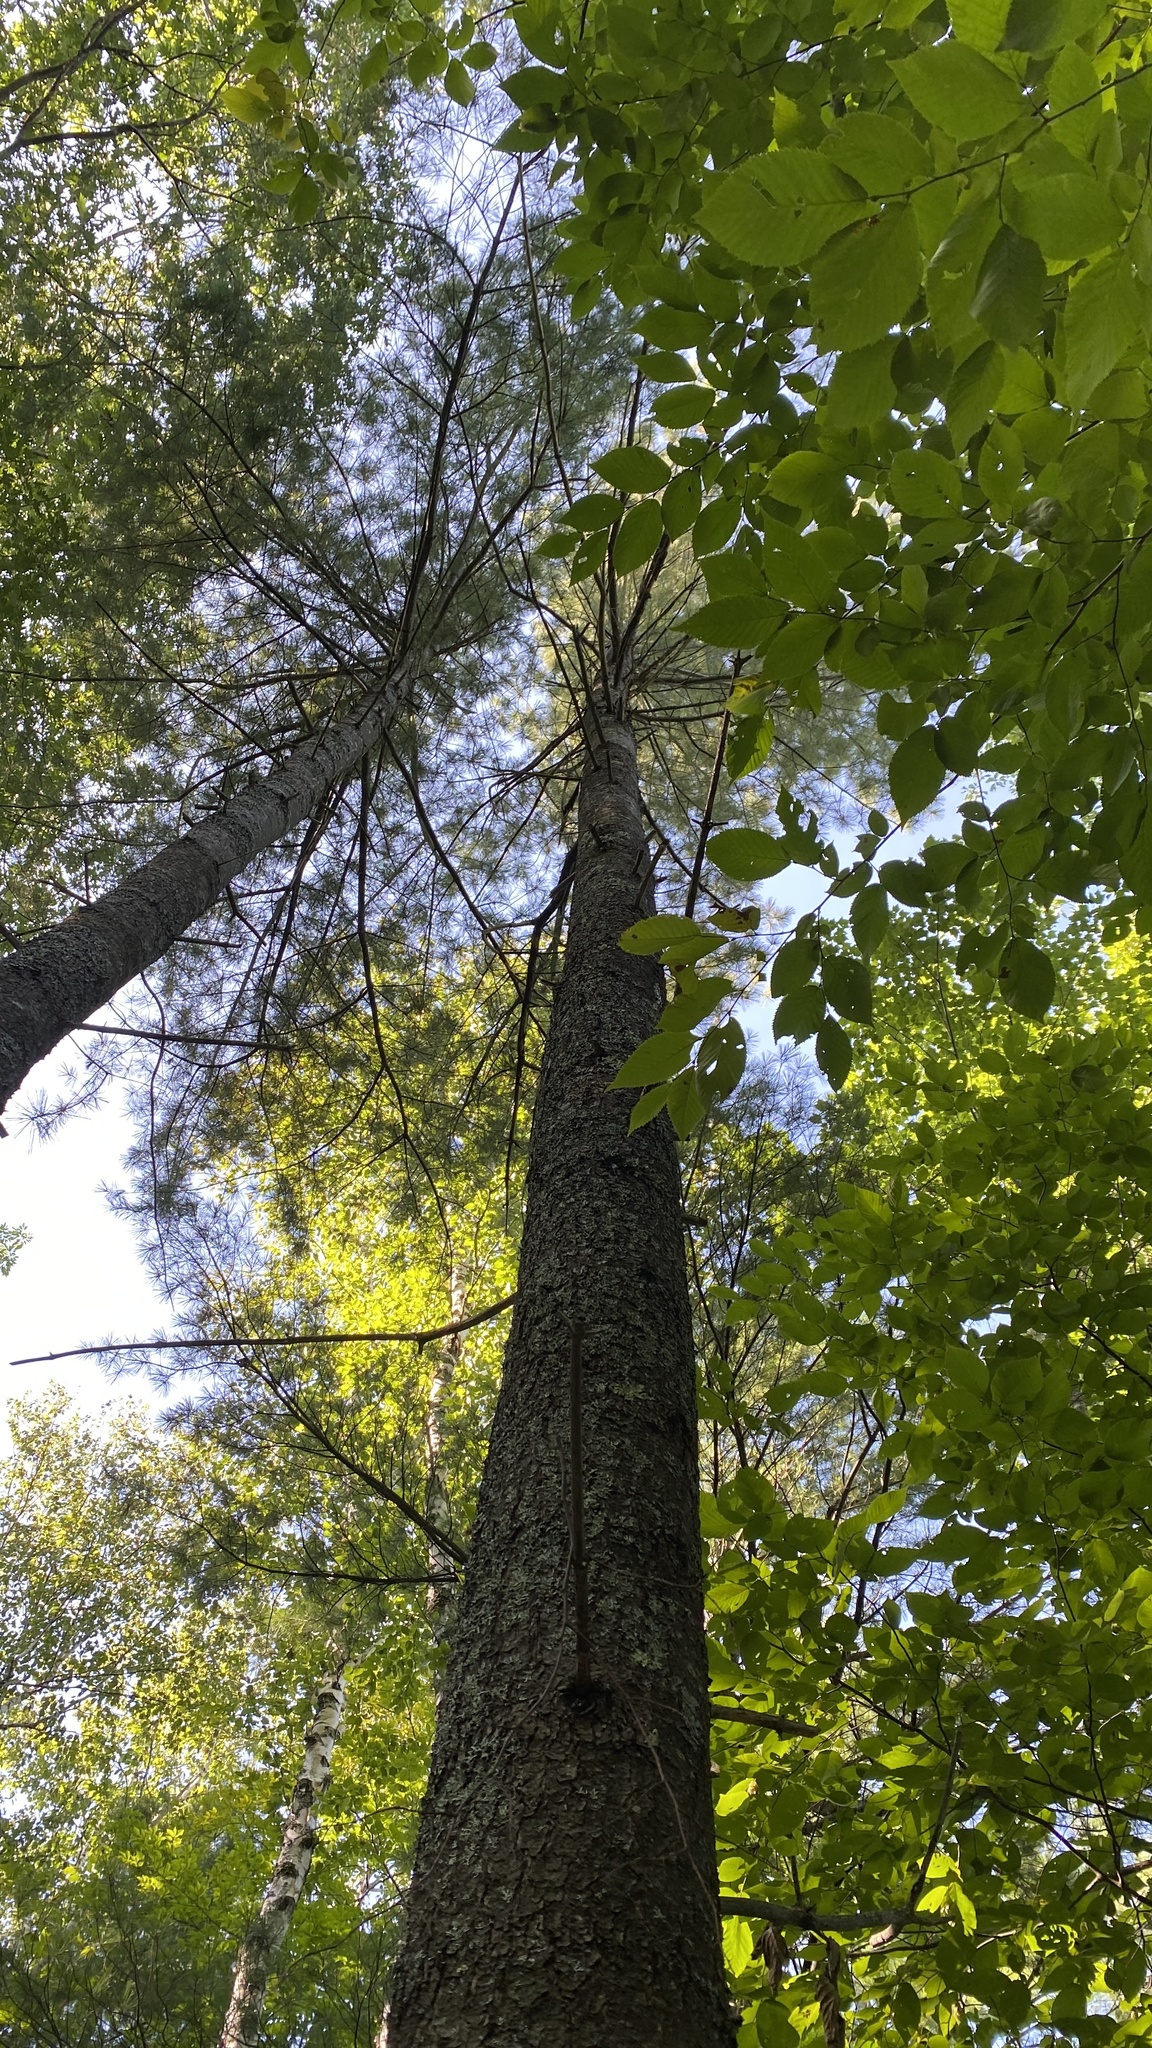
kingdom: Plantae
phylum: Tracheophyta
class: Pinopsida
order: Pinales
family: Pinaceae
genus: Pinus
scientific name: Pinus strobus
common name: Weymouth pine
